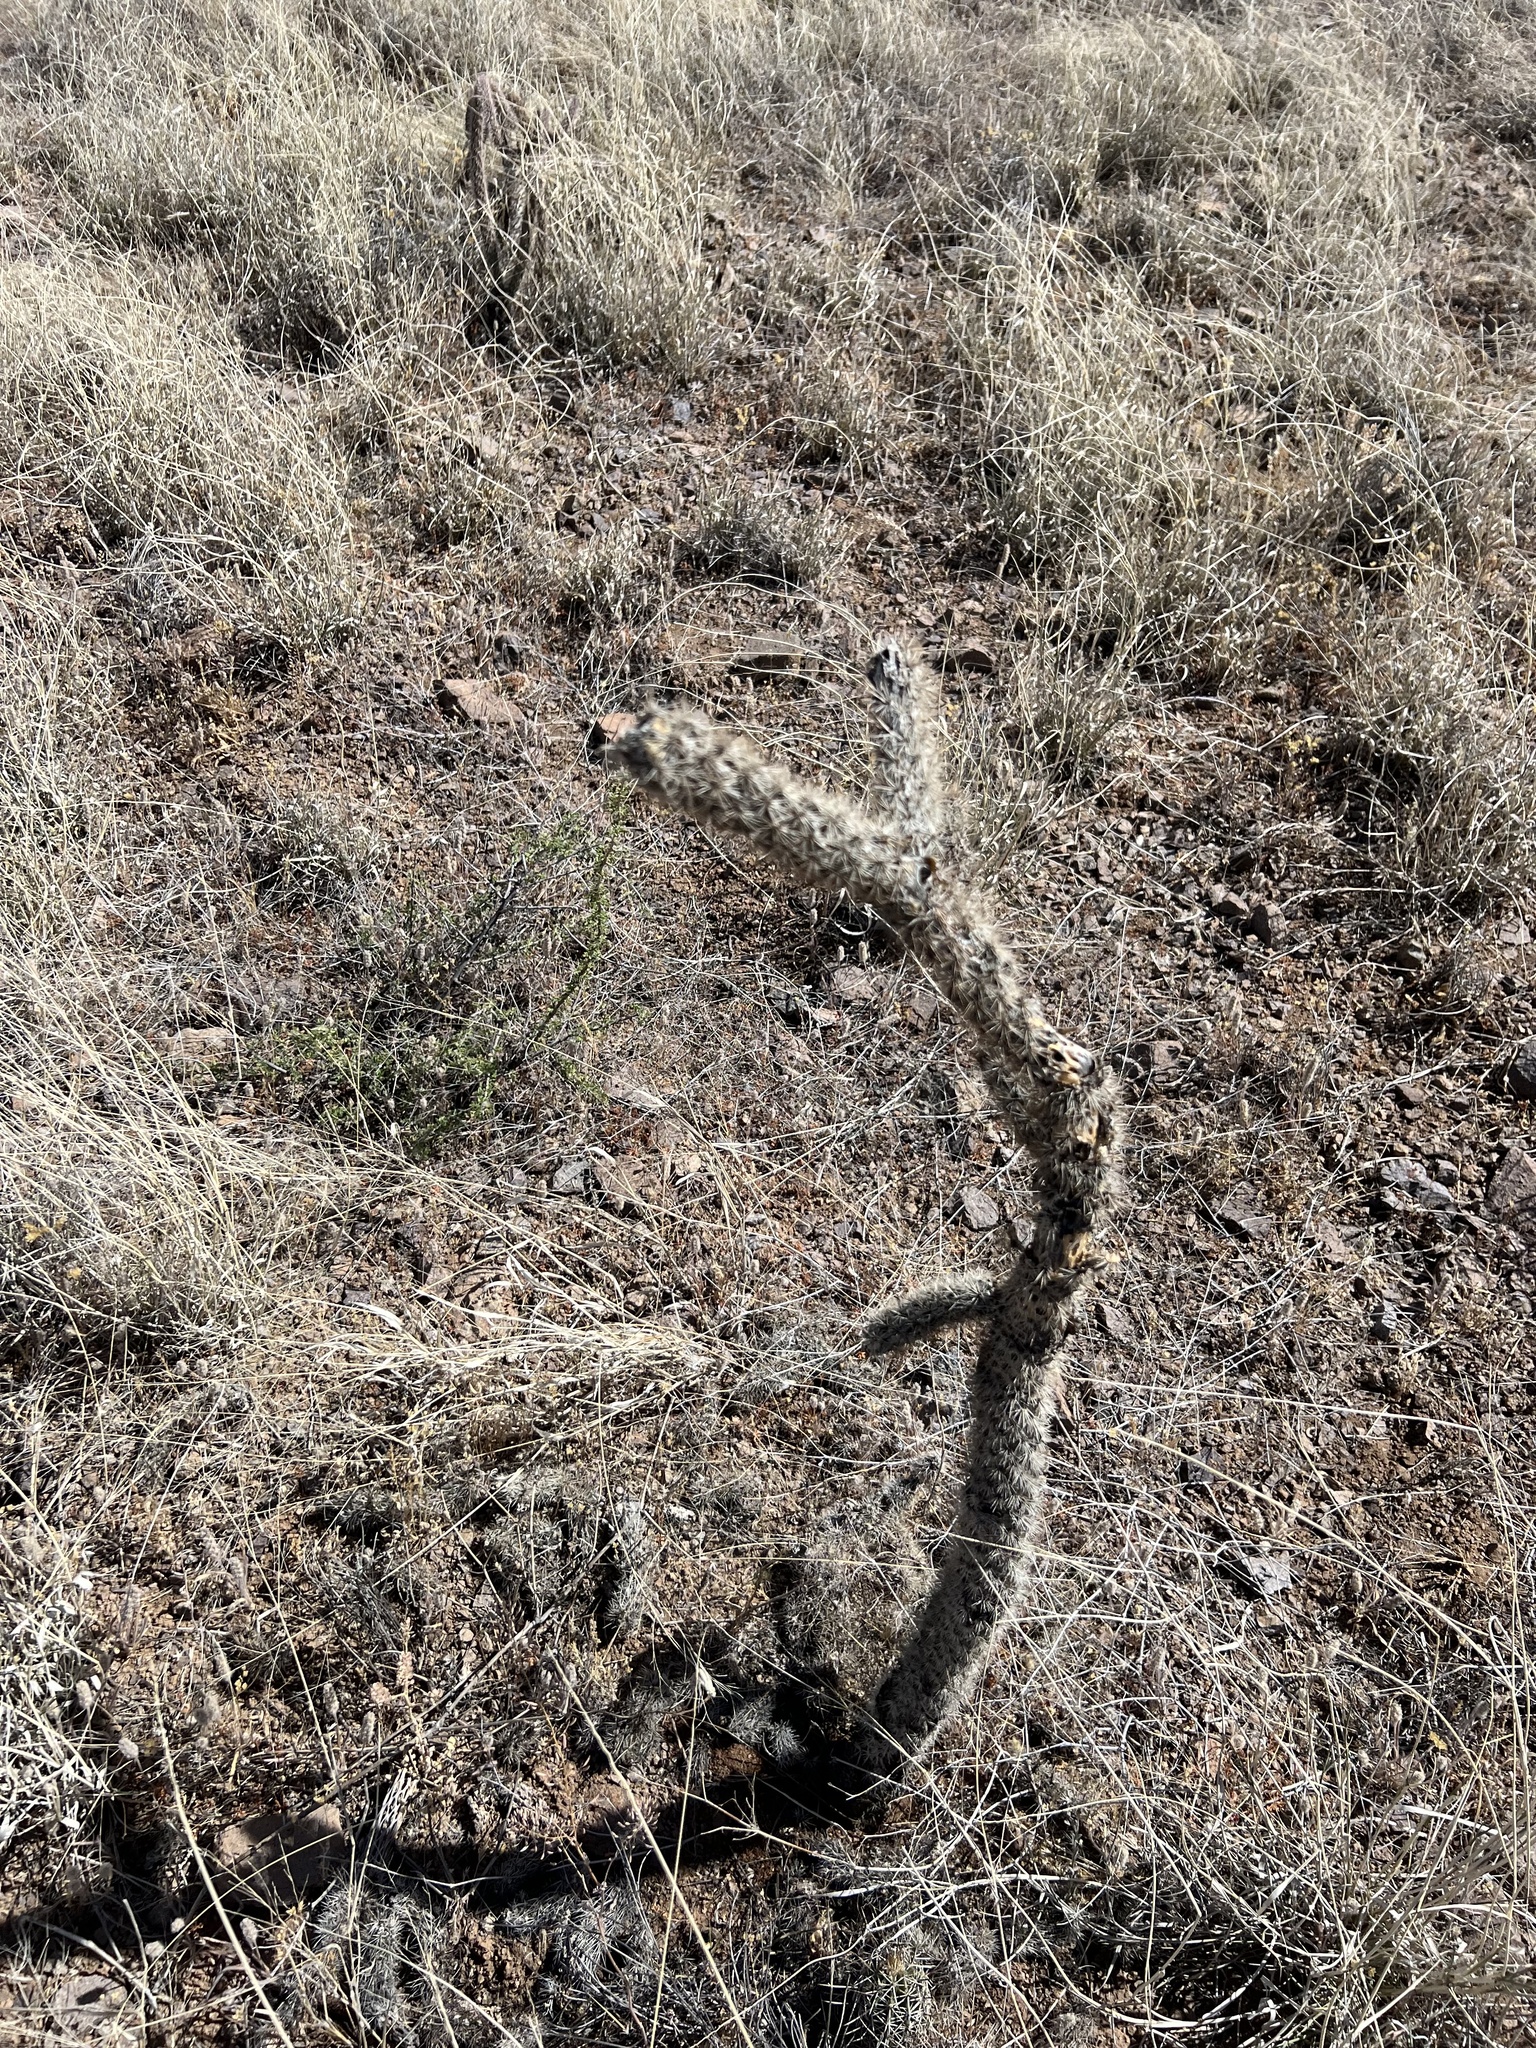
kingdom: Plantae
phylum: Tracheophyta
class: Magnoliopsida
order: Caryophyllales
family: Cactaceae
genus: Cylindropuntia
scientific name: Cylindropuntia imbricata
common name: Candelabrum cactus
